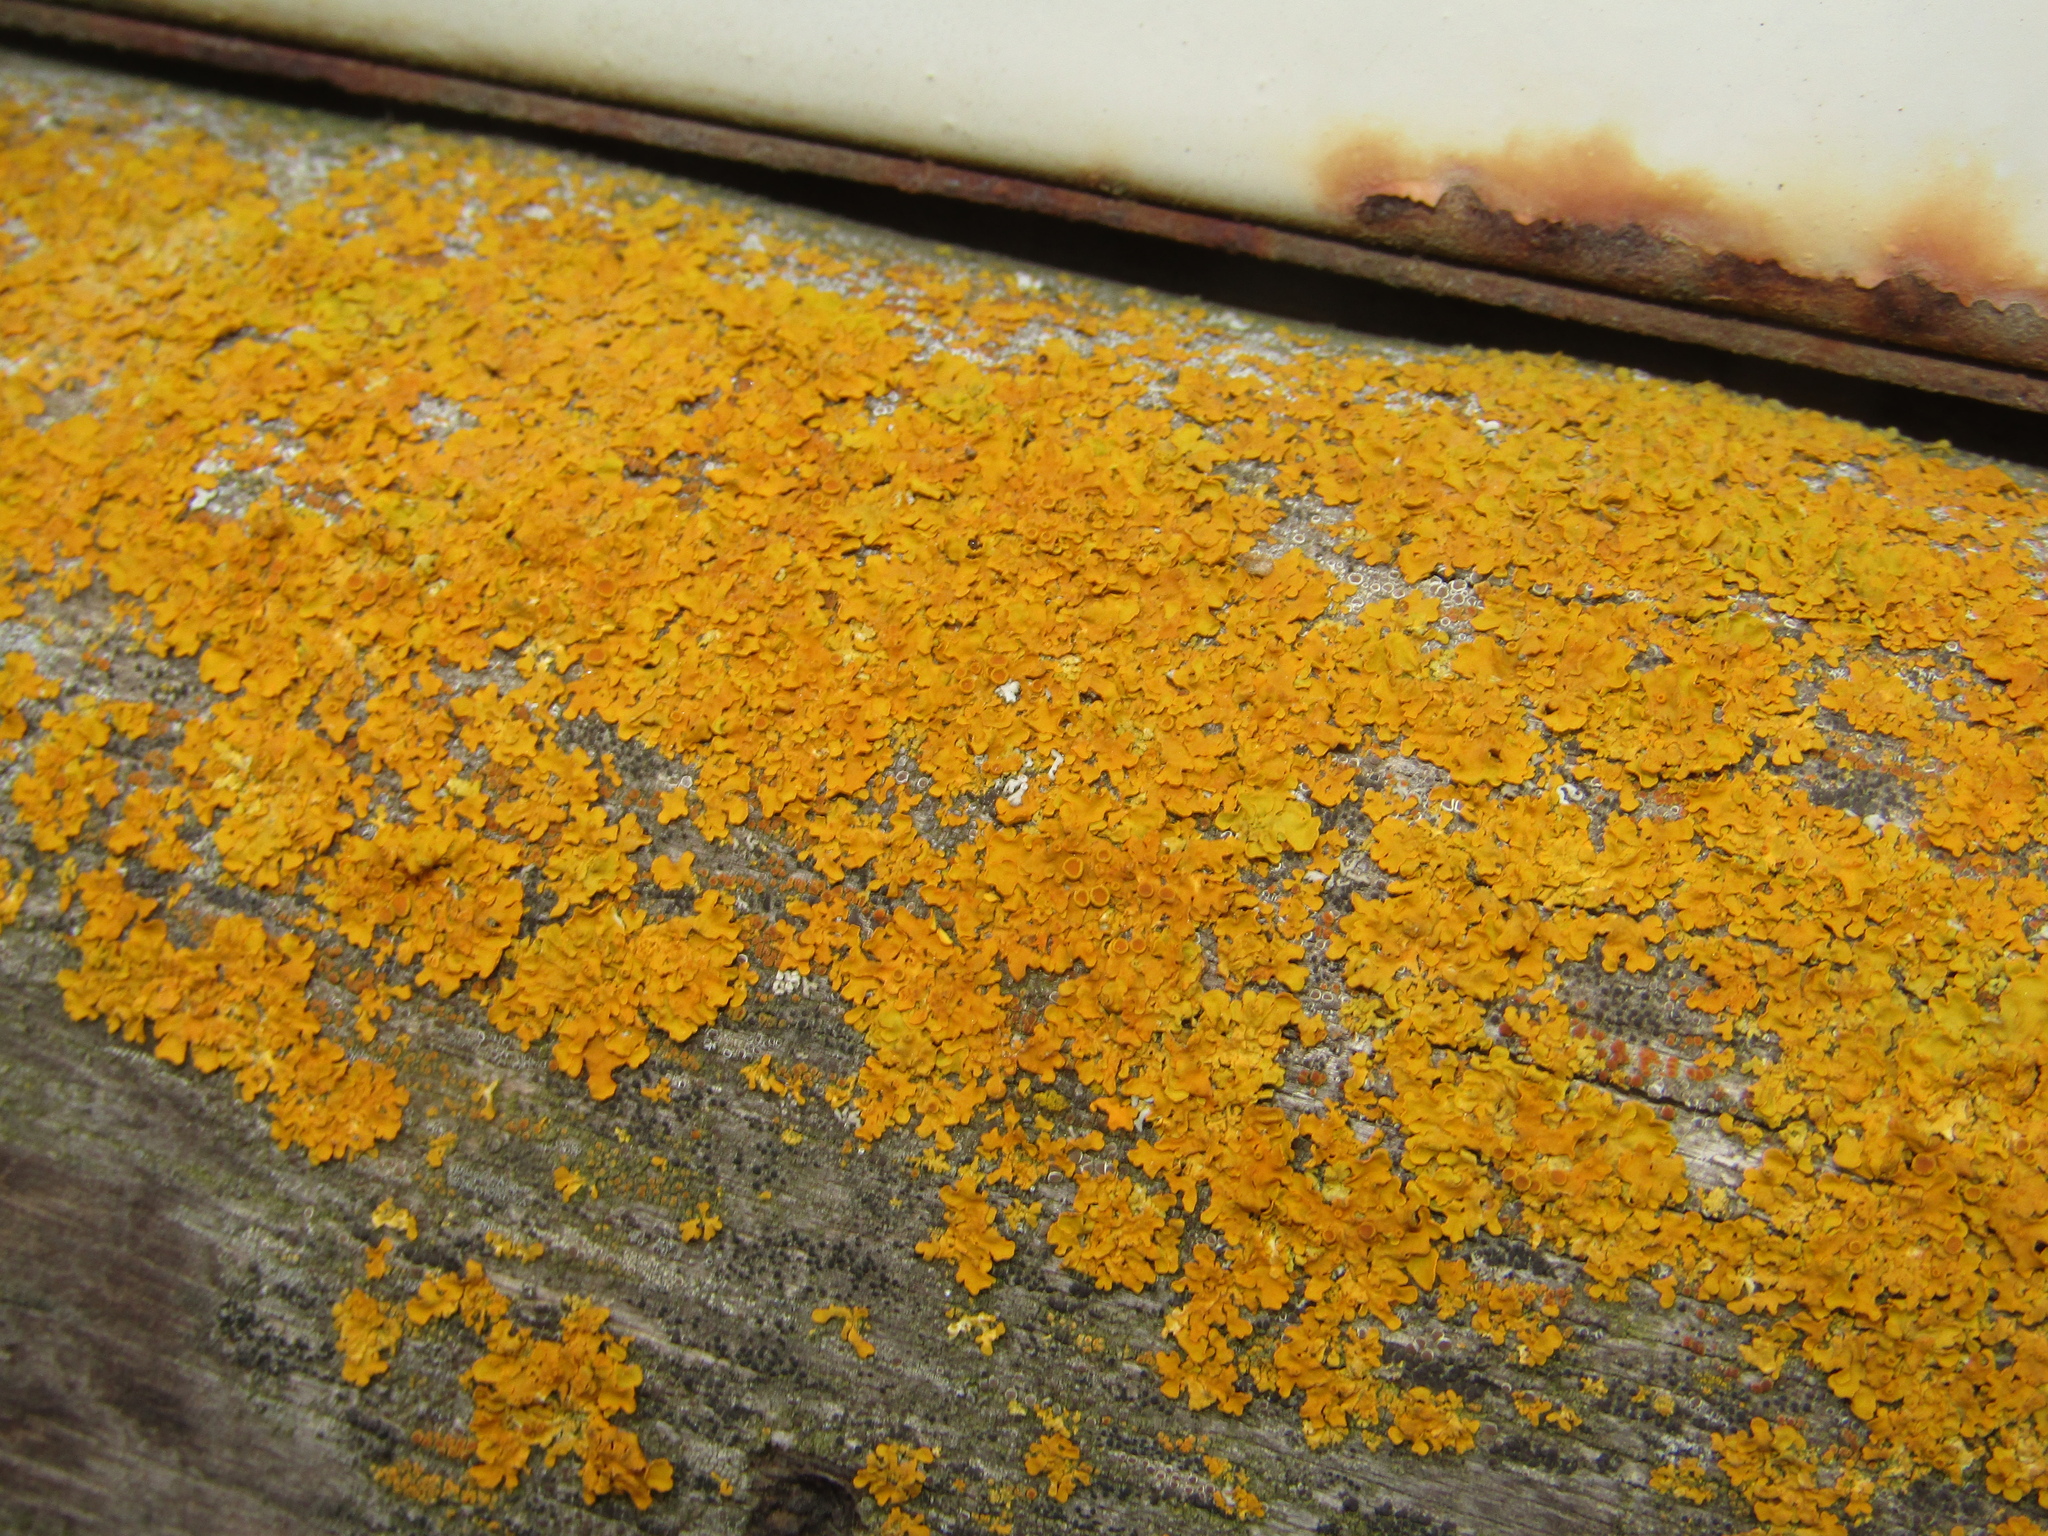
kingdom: Fungi
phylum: Ascomycota
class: Lecanoromycetes
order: Teloschistales
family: Teloschistaceae
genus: Xanthoria
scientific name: Xanthoria parietina
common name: Common orange lichen
